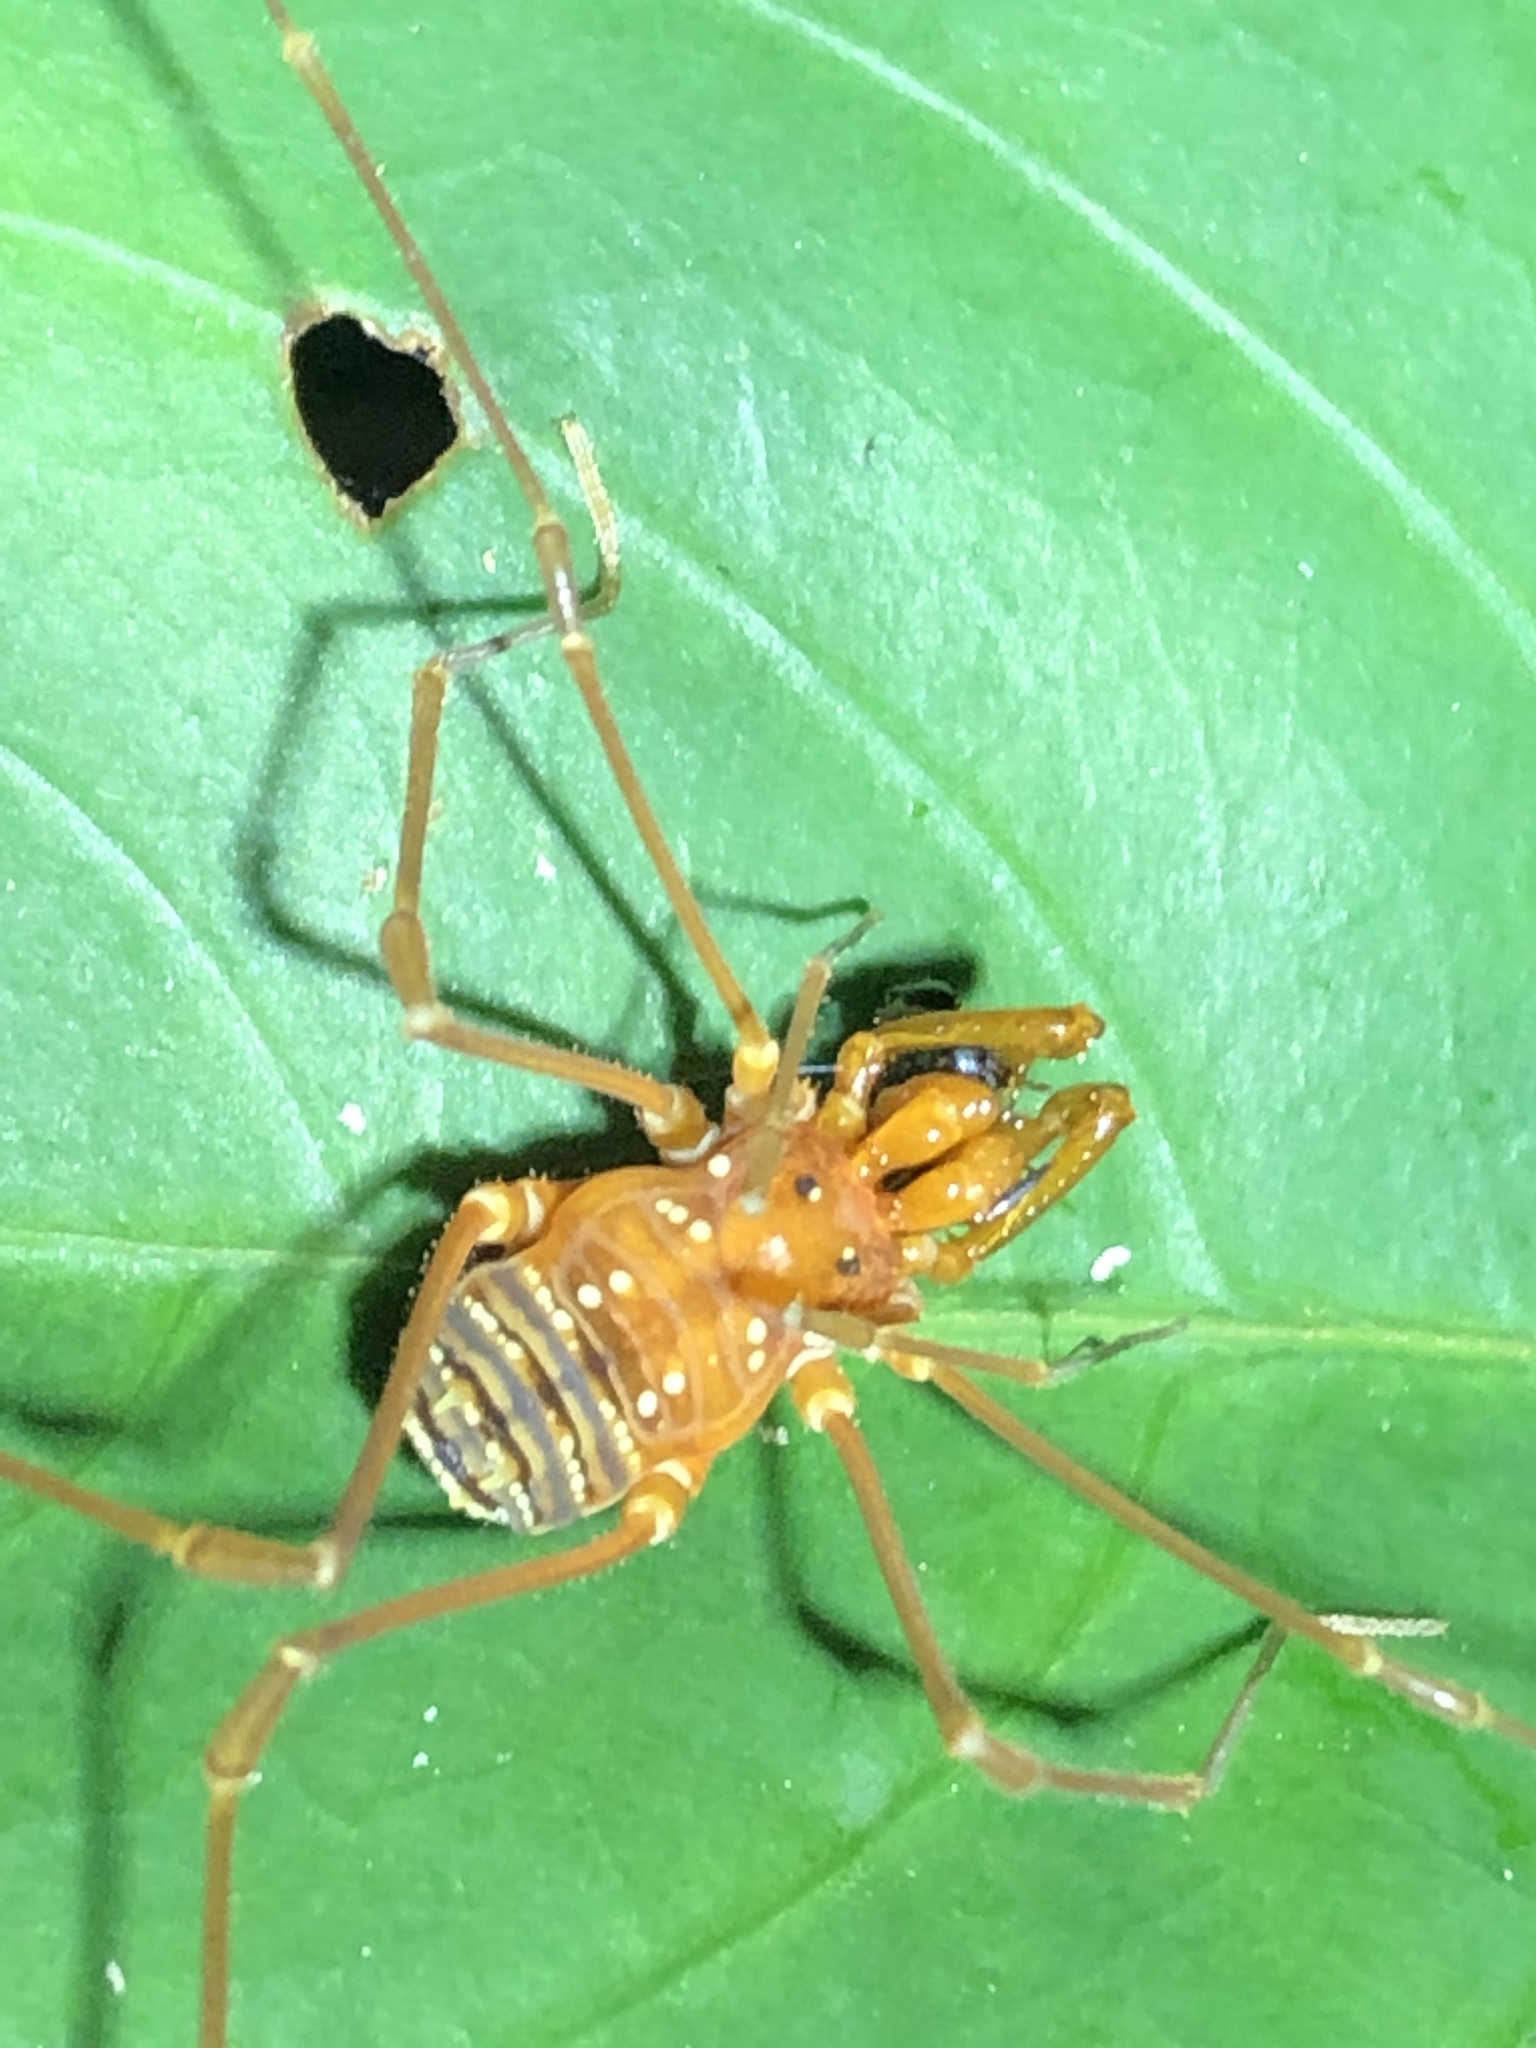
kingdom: Animalia
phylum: Arthropoda
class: Arachnida
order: Opiliones
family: Cranaidae
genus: Iquitosa
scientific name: Iquitosa poecilis
